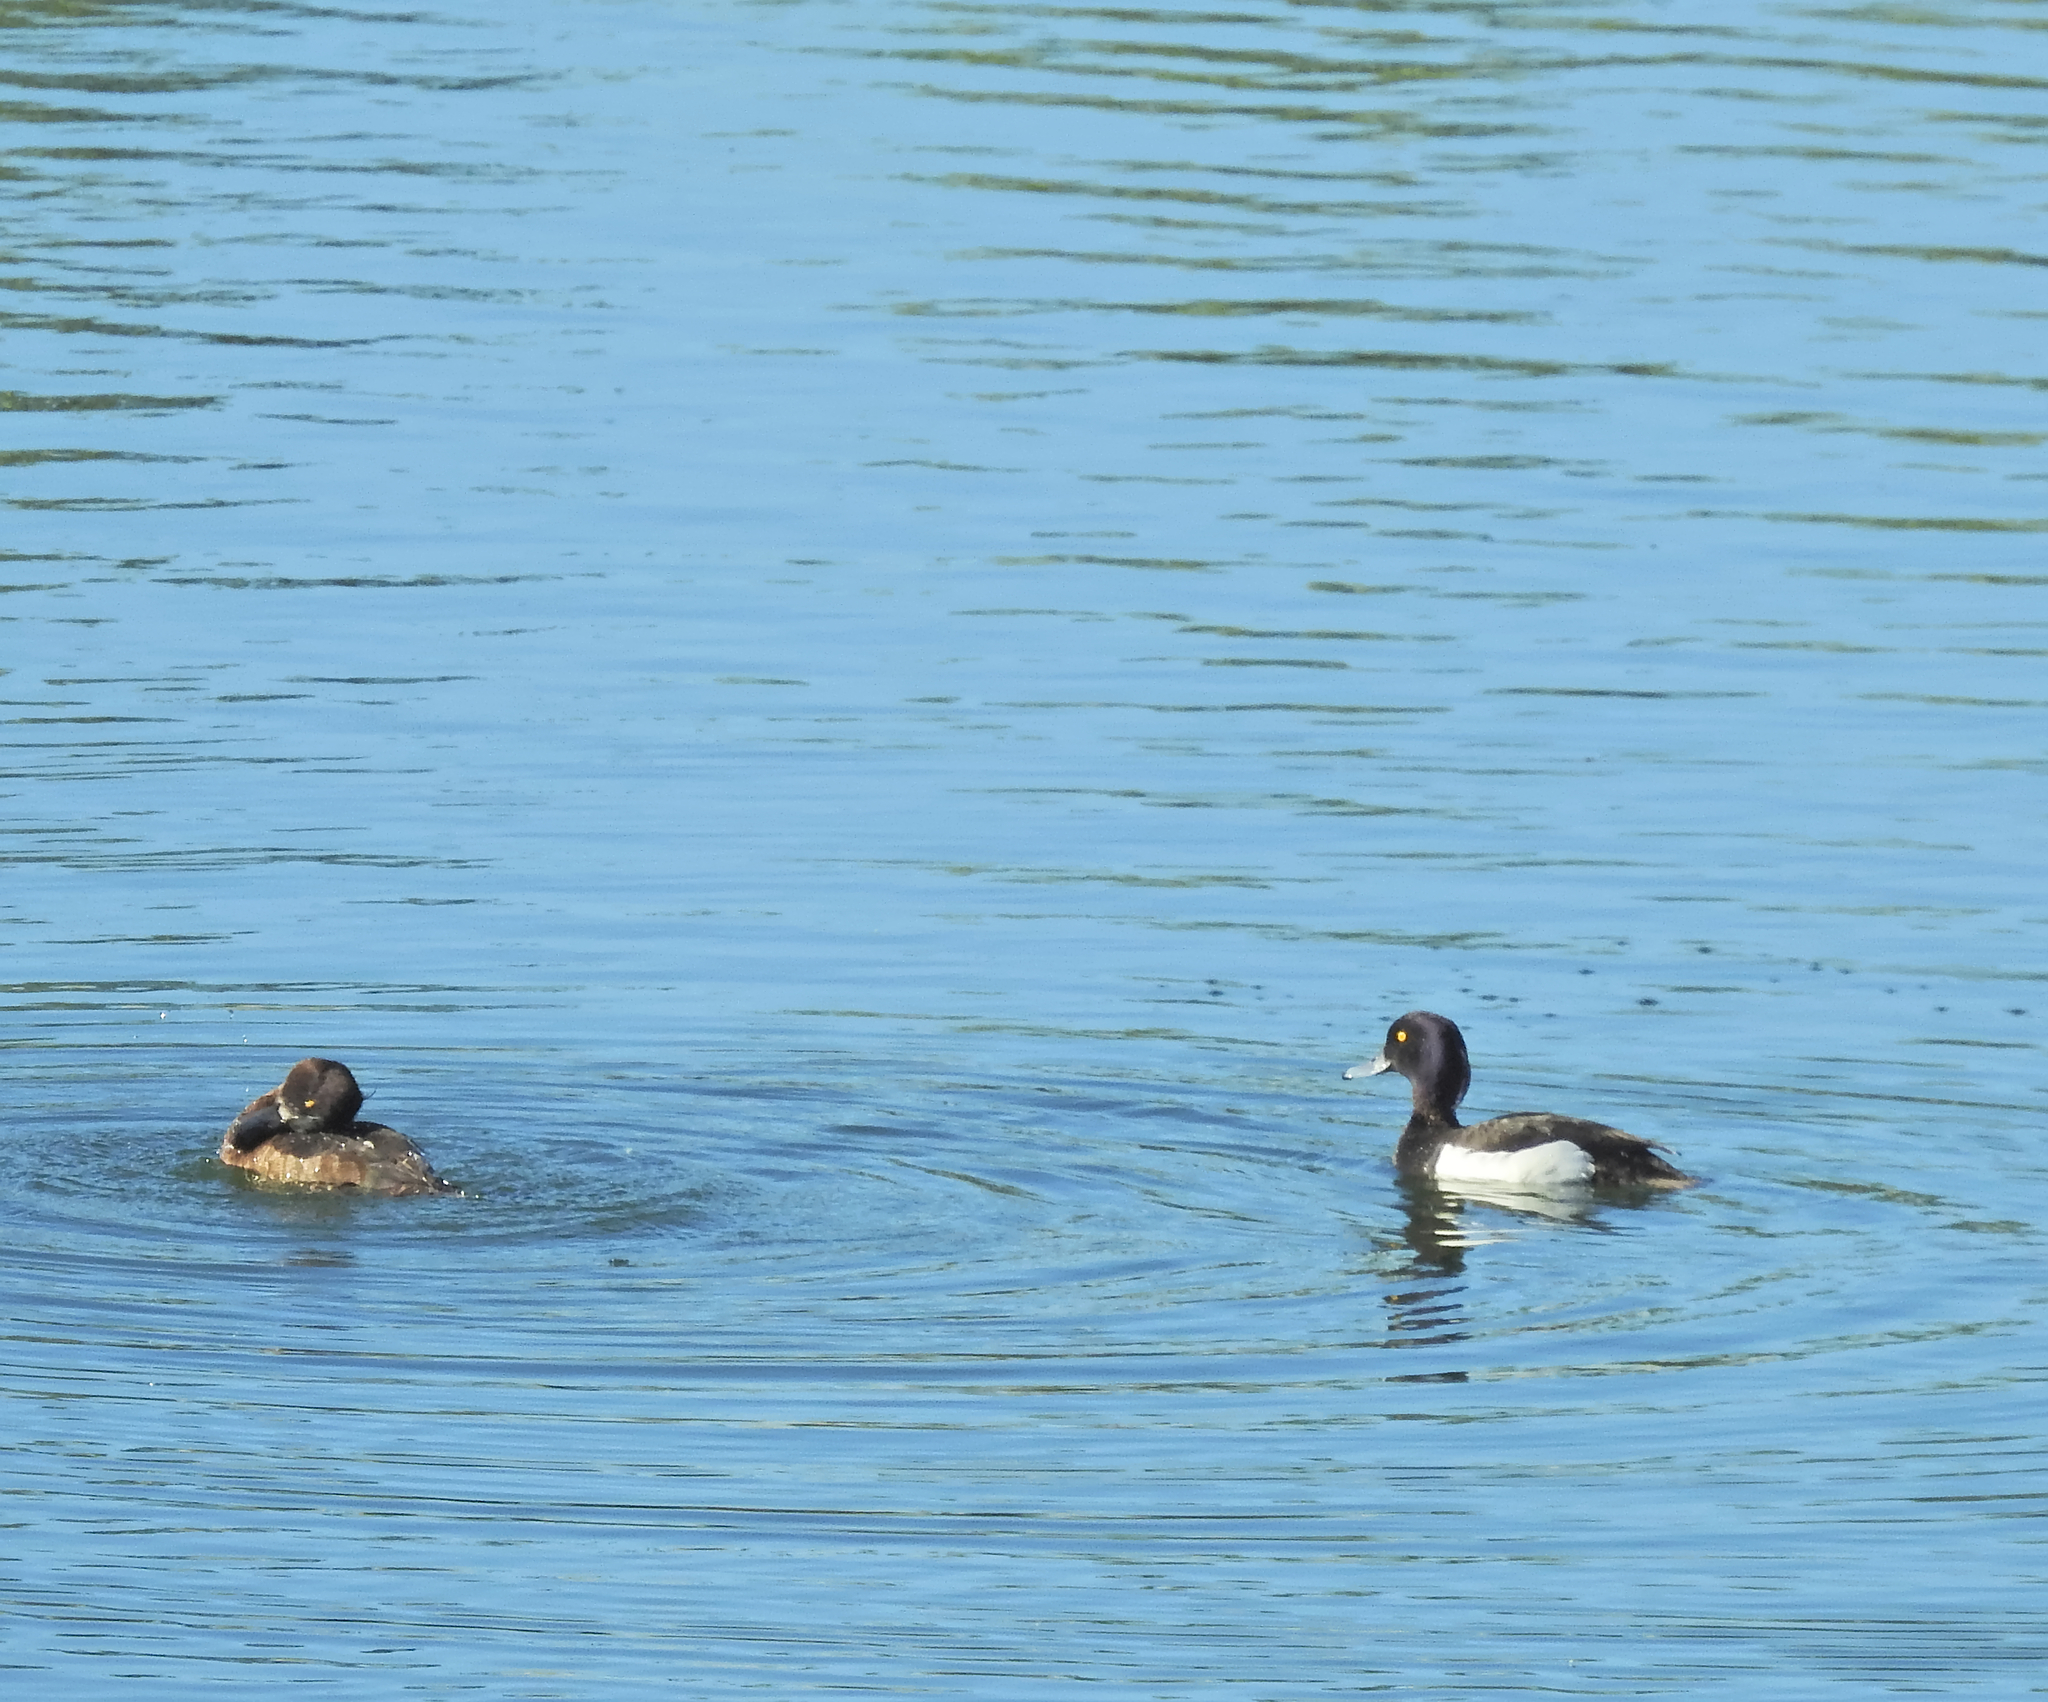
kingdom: Animalia
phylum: Chordata
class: Aves
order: Anseriformes
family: Anatidae
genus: Aythya
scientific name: Aythya fuligula
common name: Tufted duck
